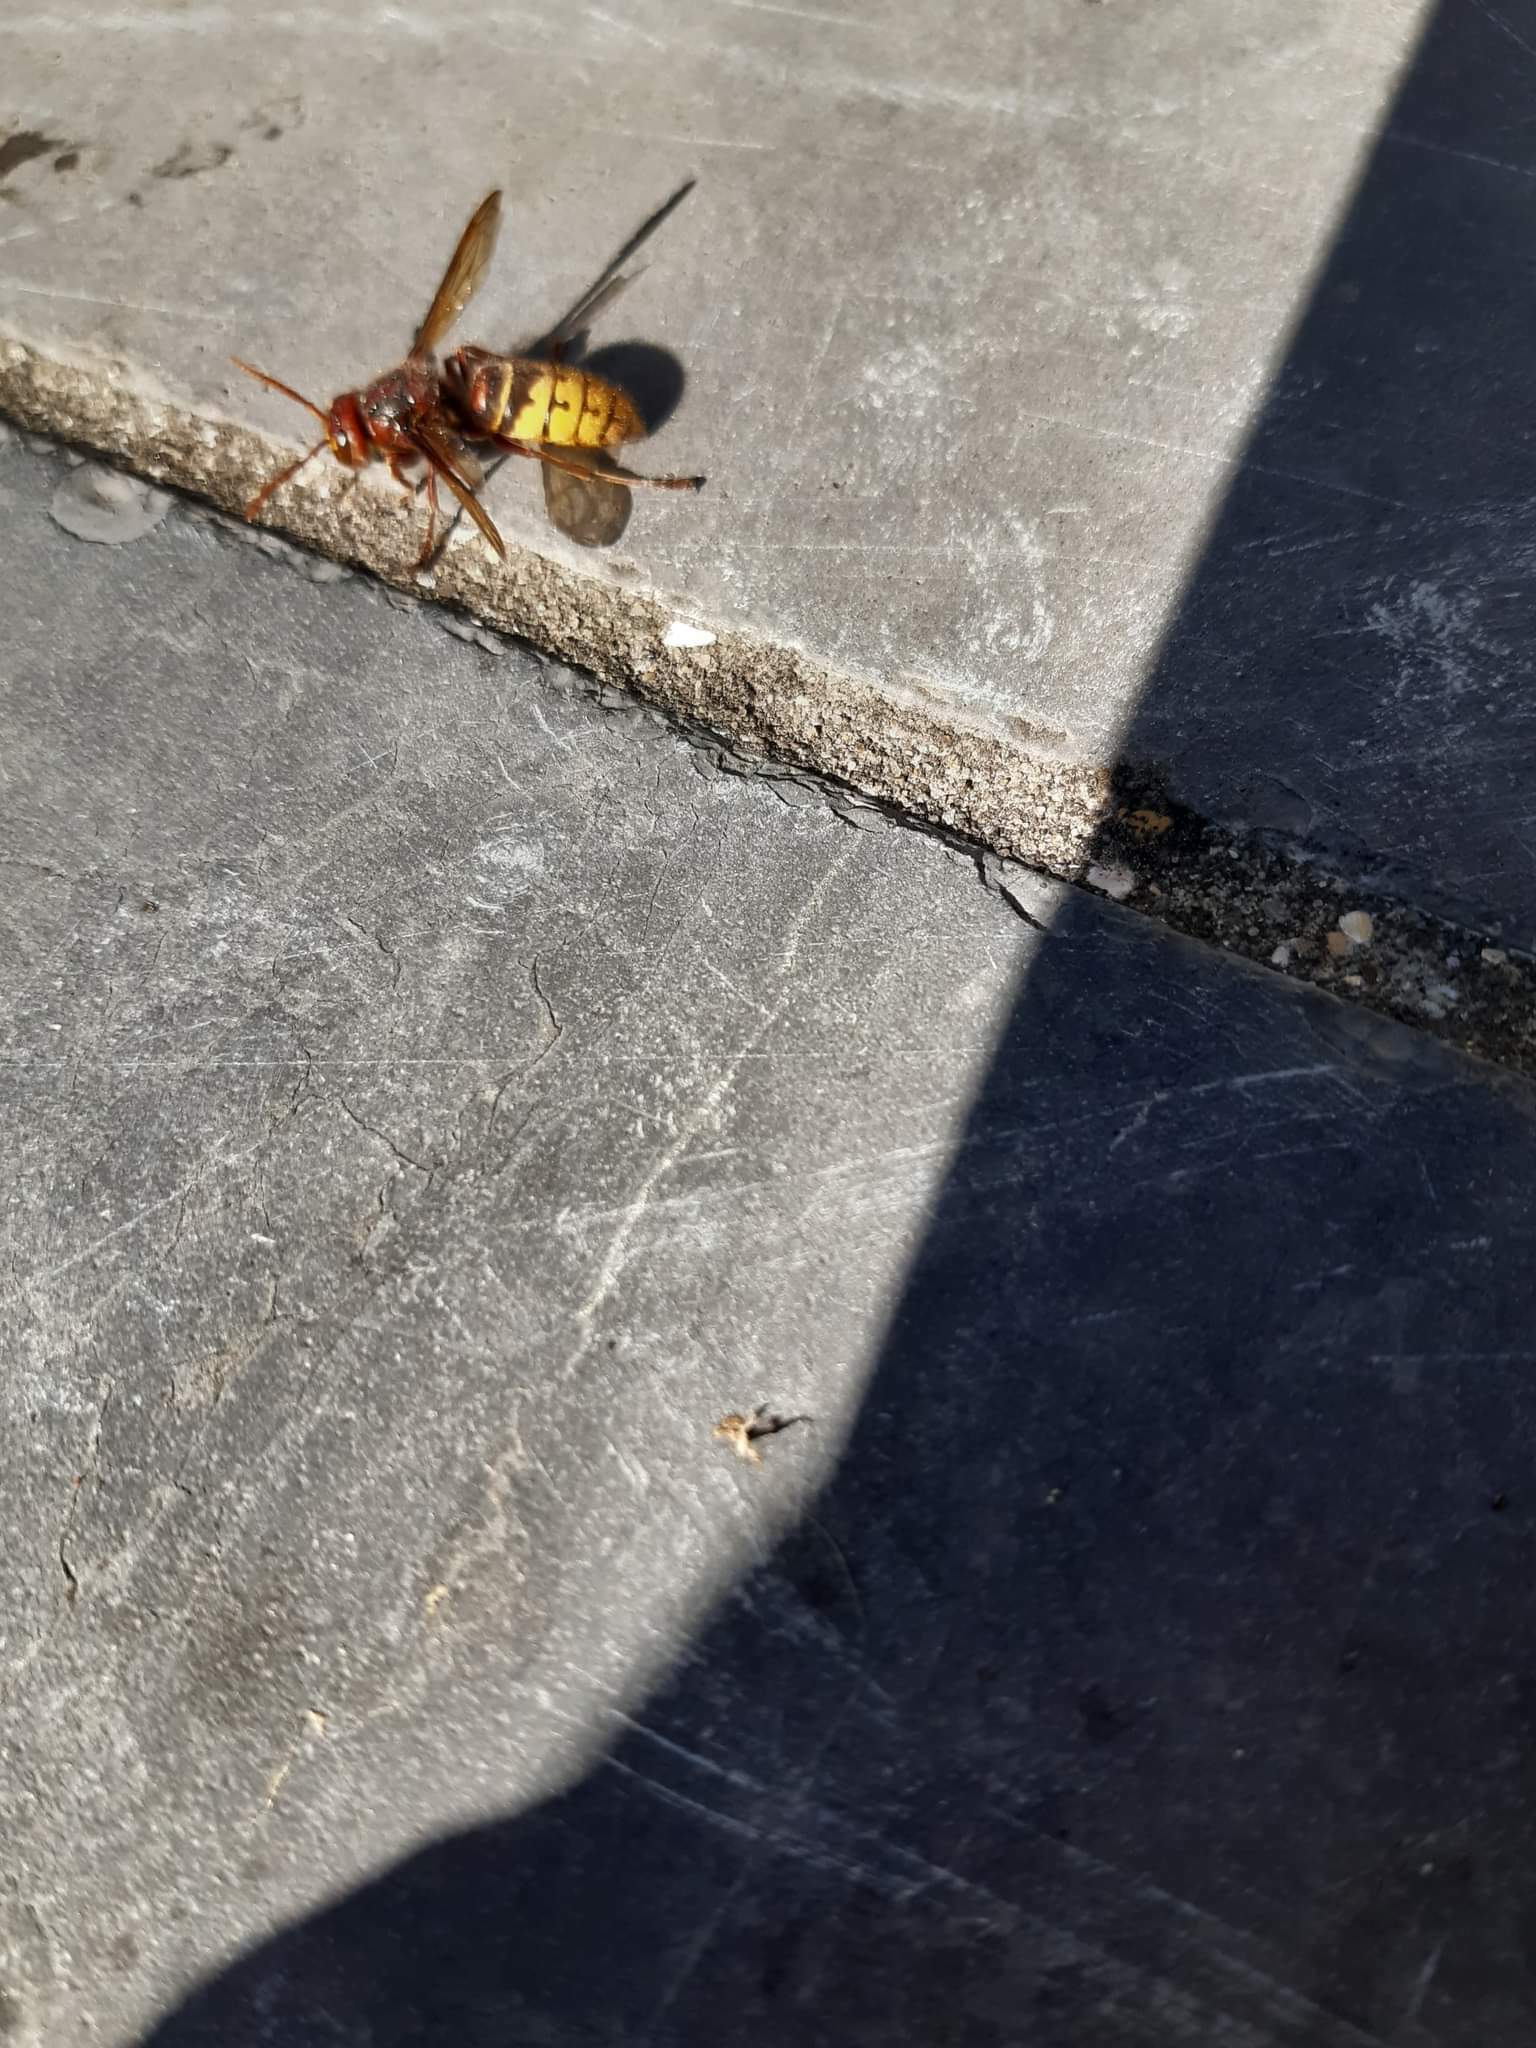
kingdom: Animalia
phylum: Arthropoda
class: Insecta
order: Hymenoptera
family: Vespidae
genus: Vespa
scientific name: Vespa crabro
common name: Hornet
